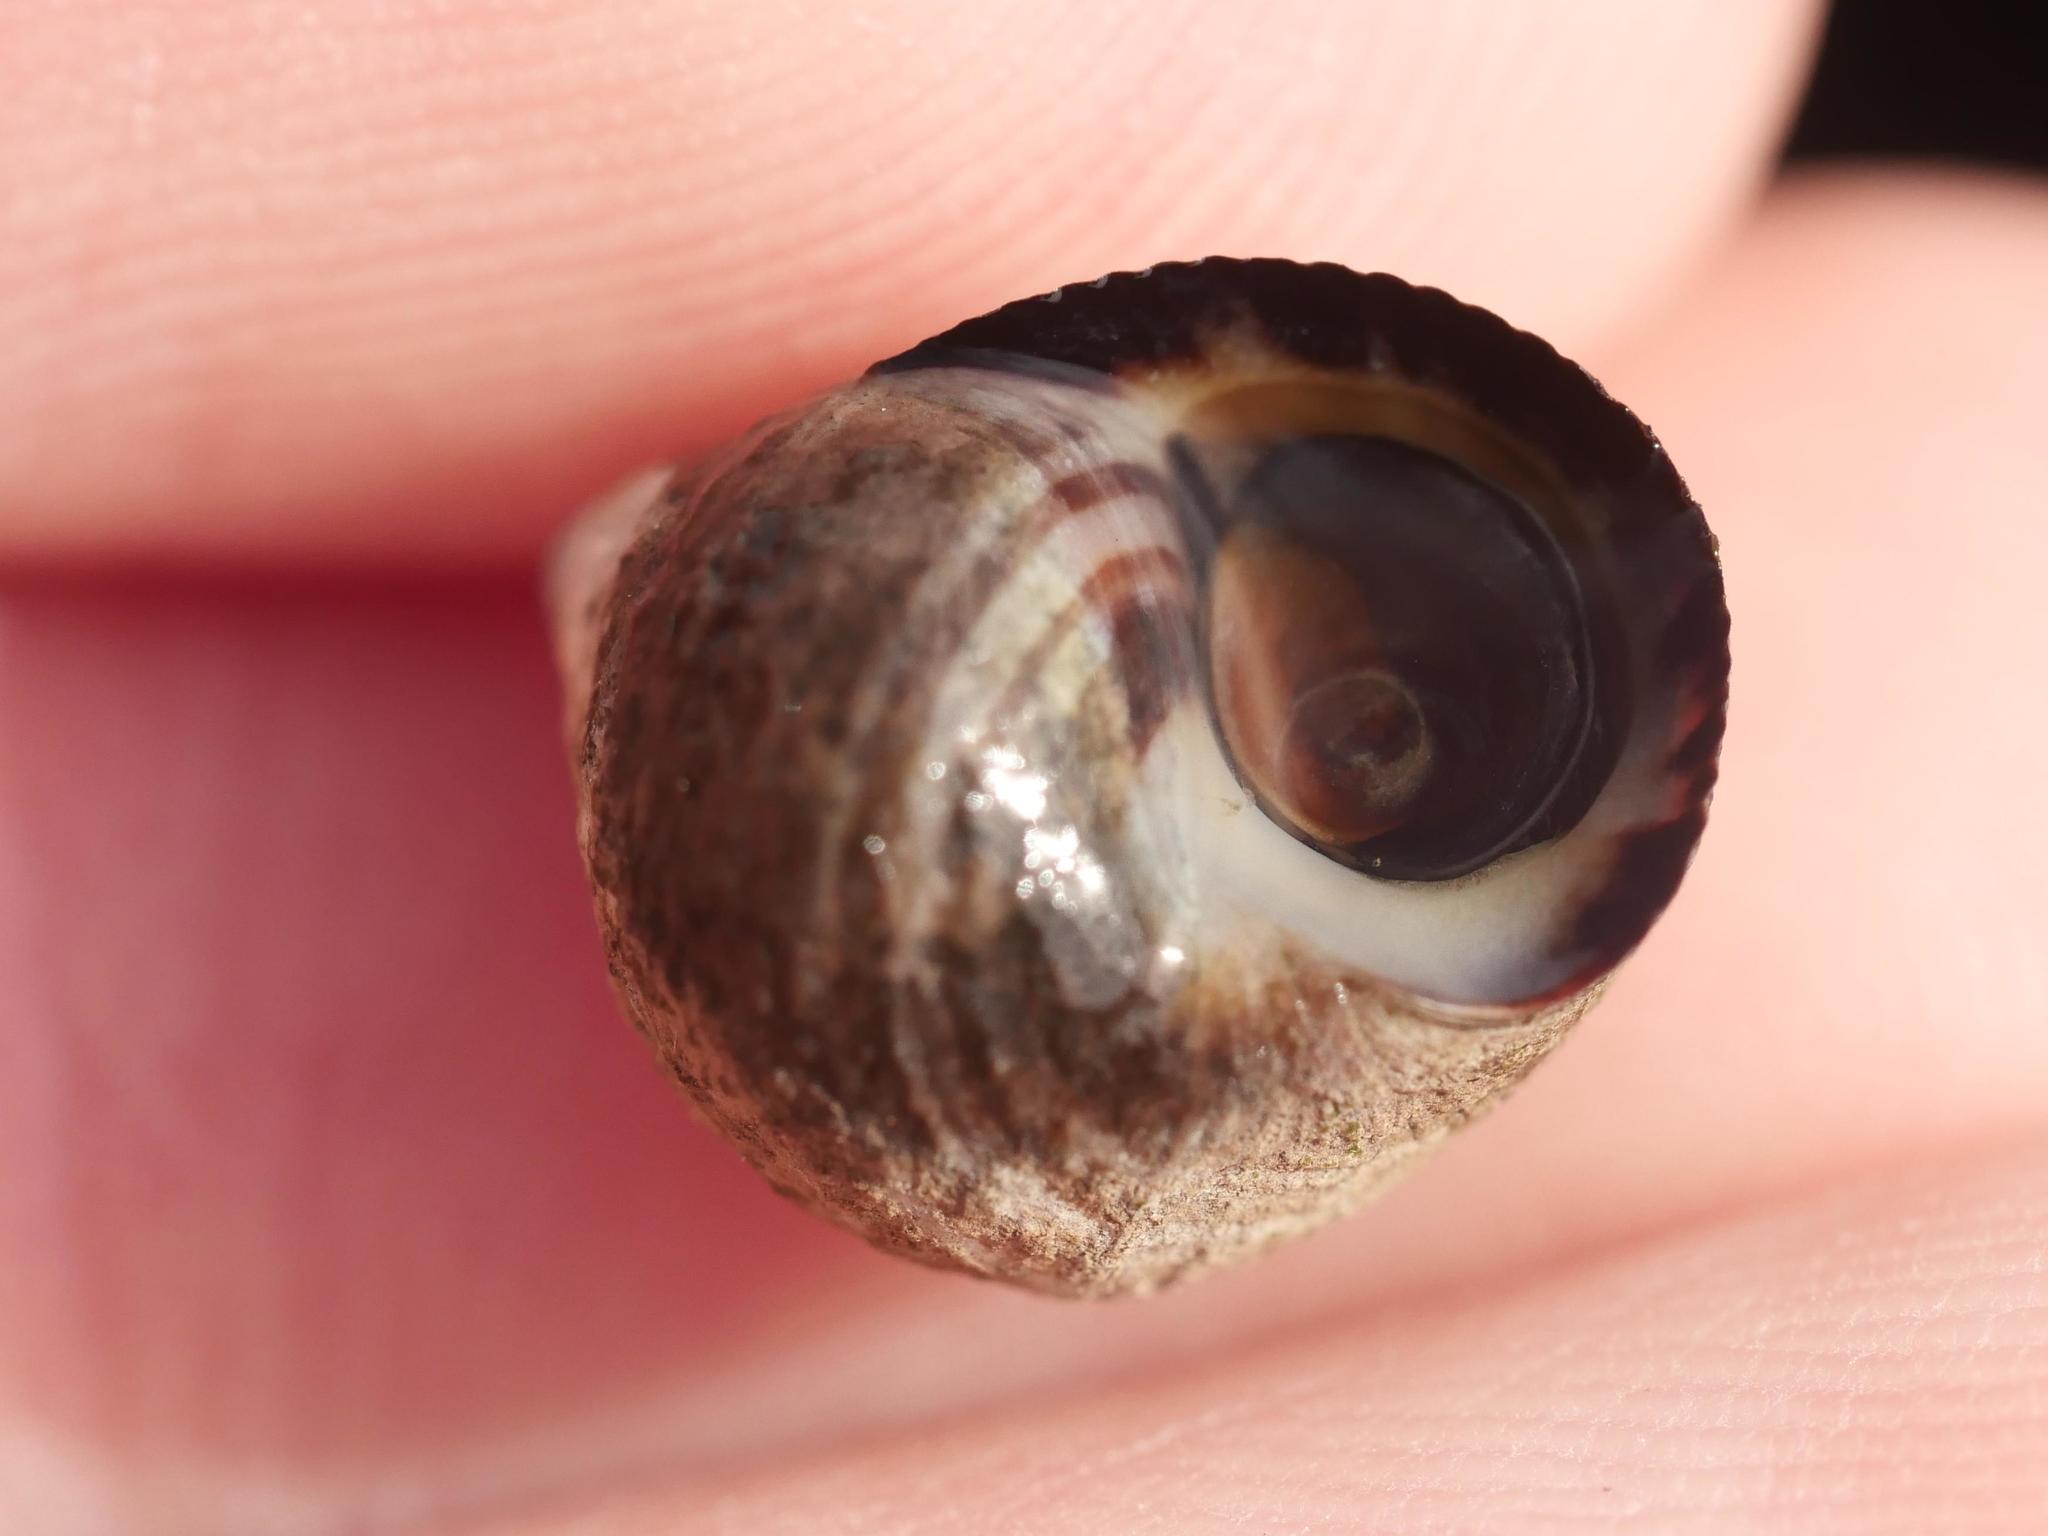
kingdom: Animalia
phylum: Mollusca
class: Gastropoda
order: Littorinimorpha
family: Littorinidae
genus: Littorina
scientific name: Littorina littorea
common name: Common periwinkle
